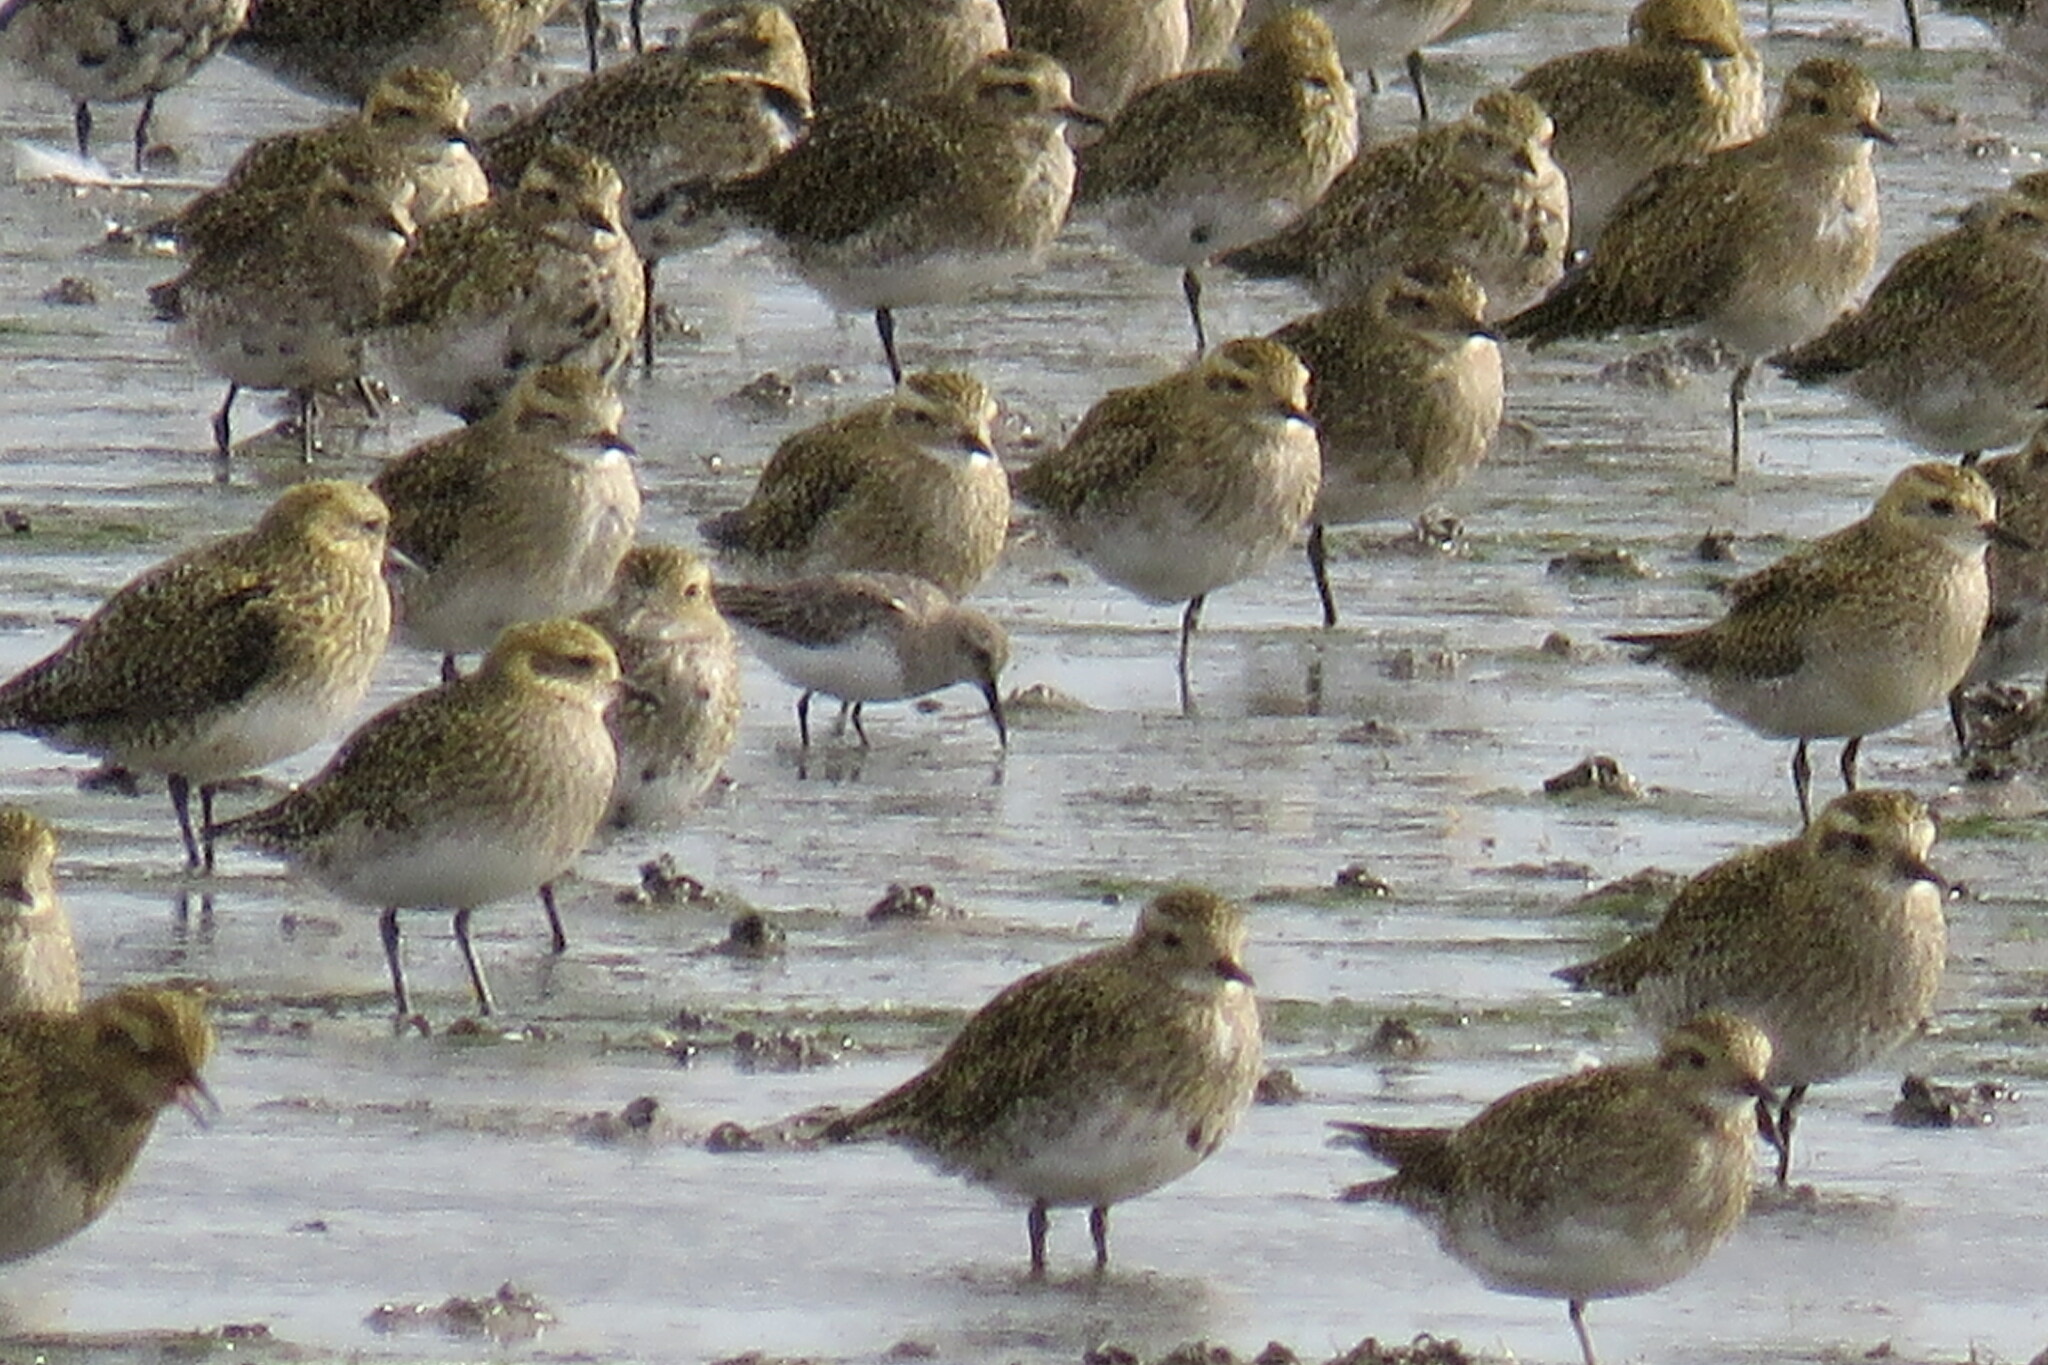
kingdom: Animalia
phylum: Chordata
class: Aves
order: Charadriiformes
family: Scolopacidae
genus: Calidris
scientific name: Calidris alpina
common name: Dunlin
